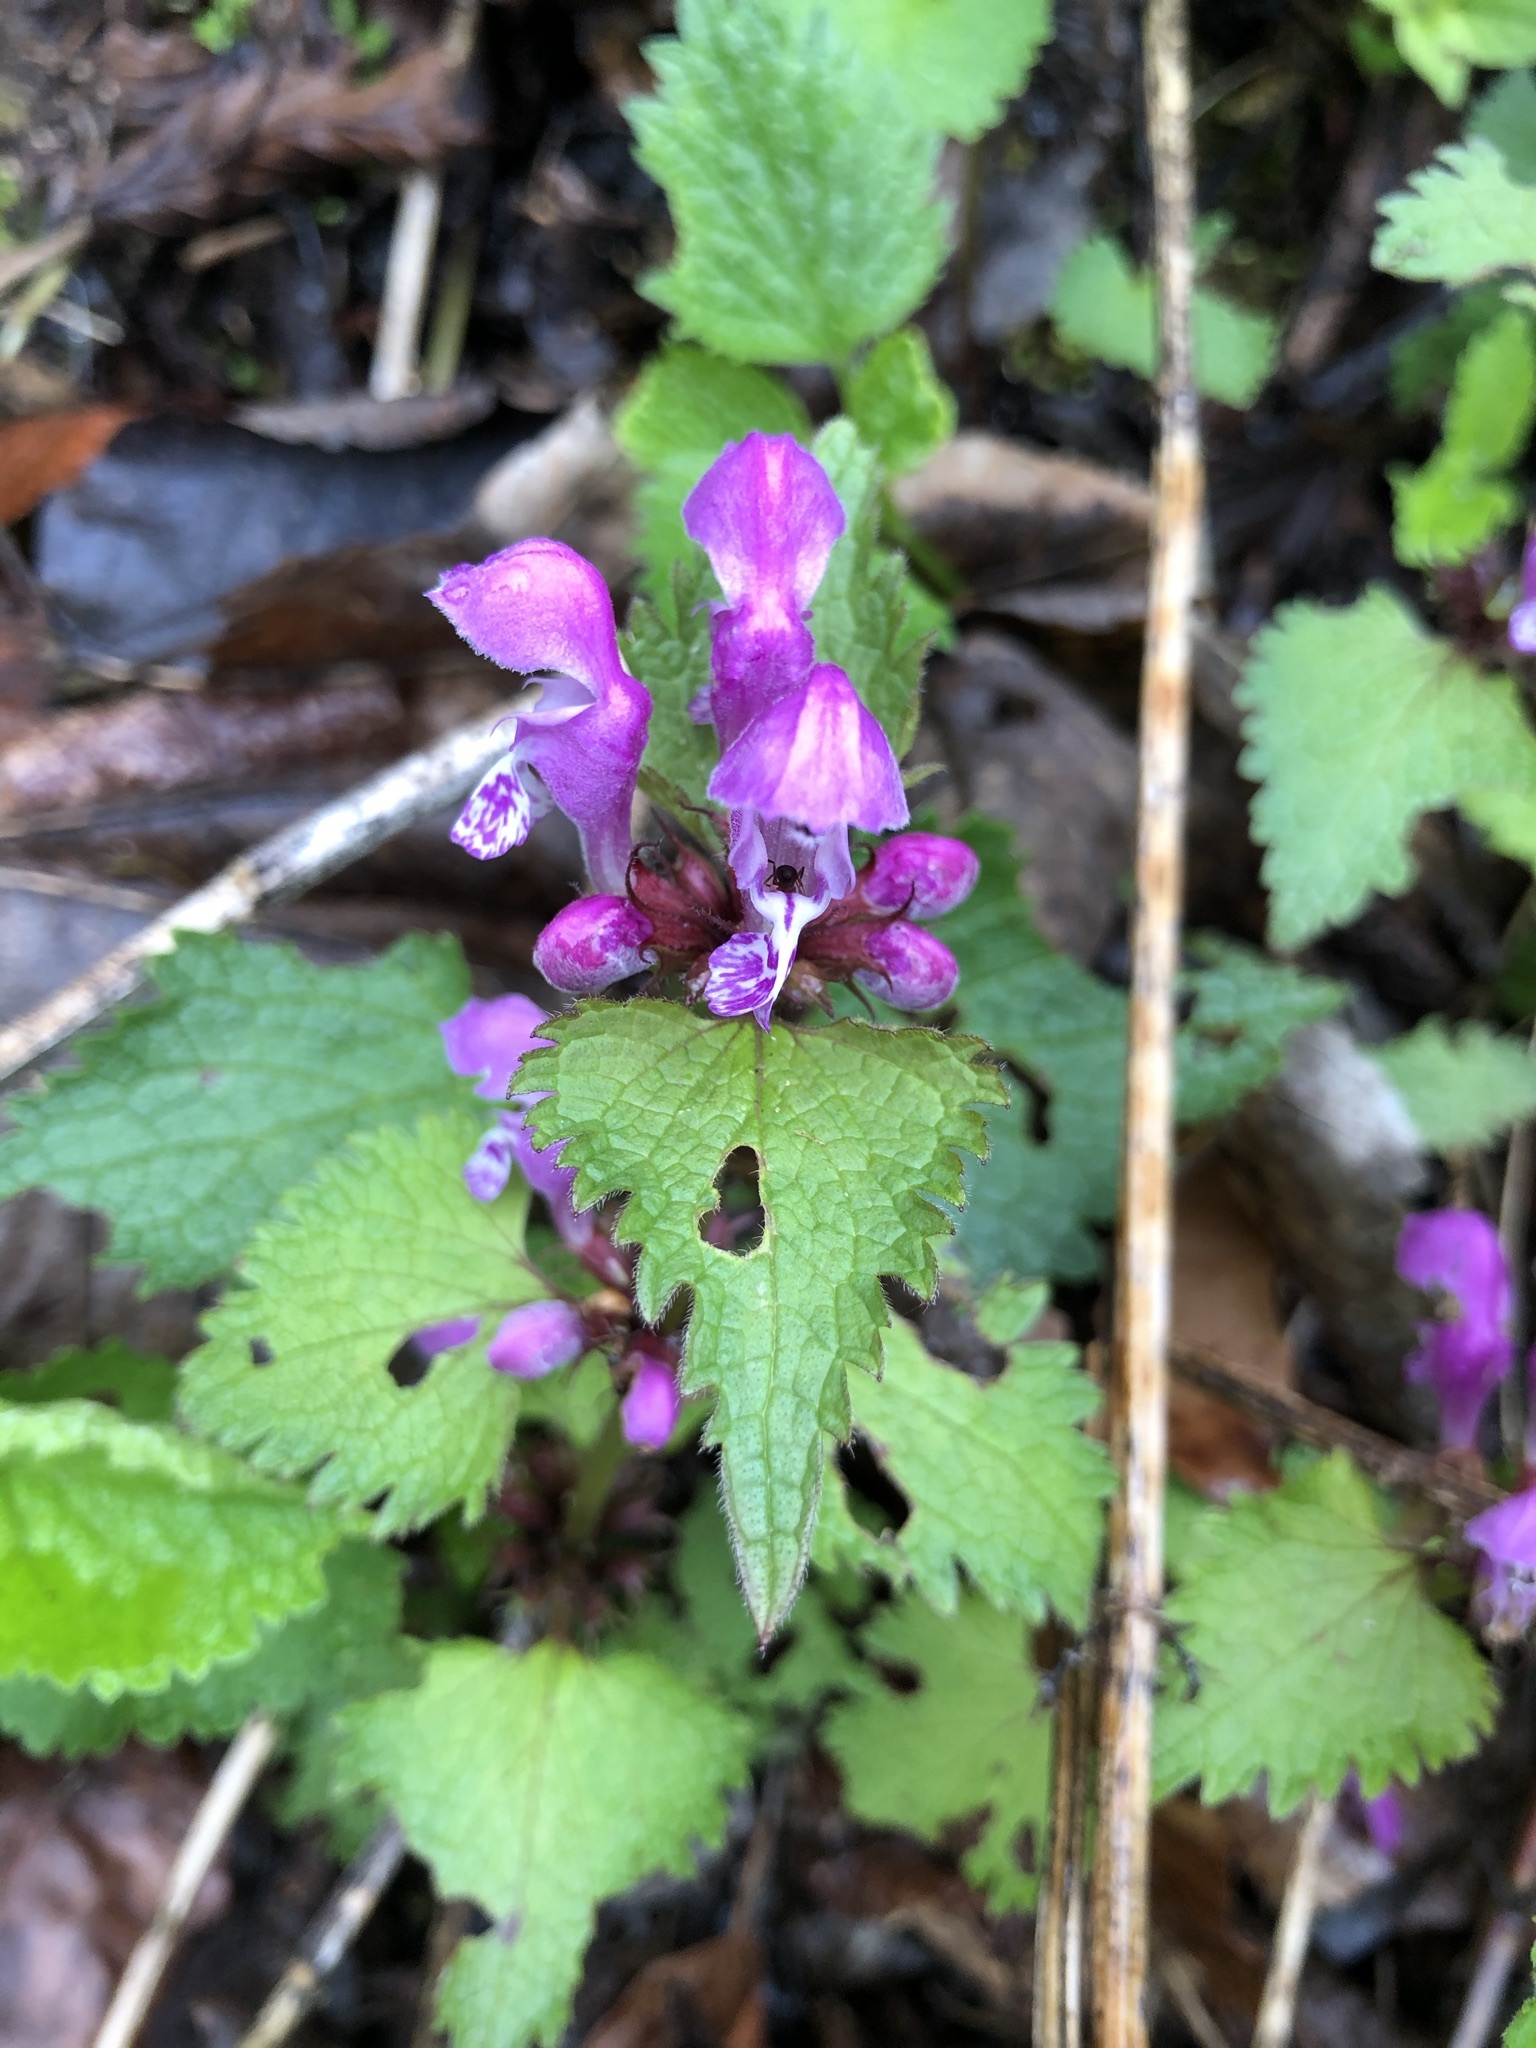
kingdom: Plantae
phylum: Tracheophyta
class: Magnoliopsida
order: Lamiales
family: Lamiaceae
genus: Lamium
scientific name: Lamium maculatum
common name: Spotted dead-nettle
